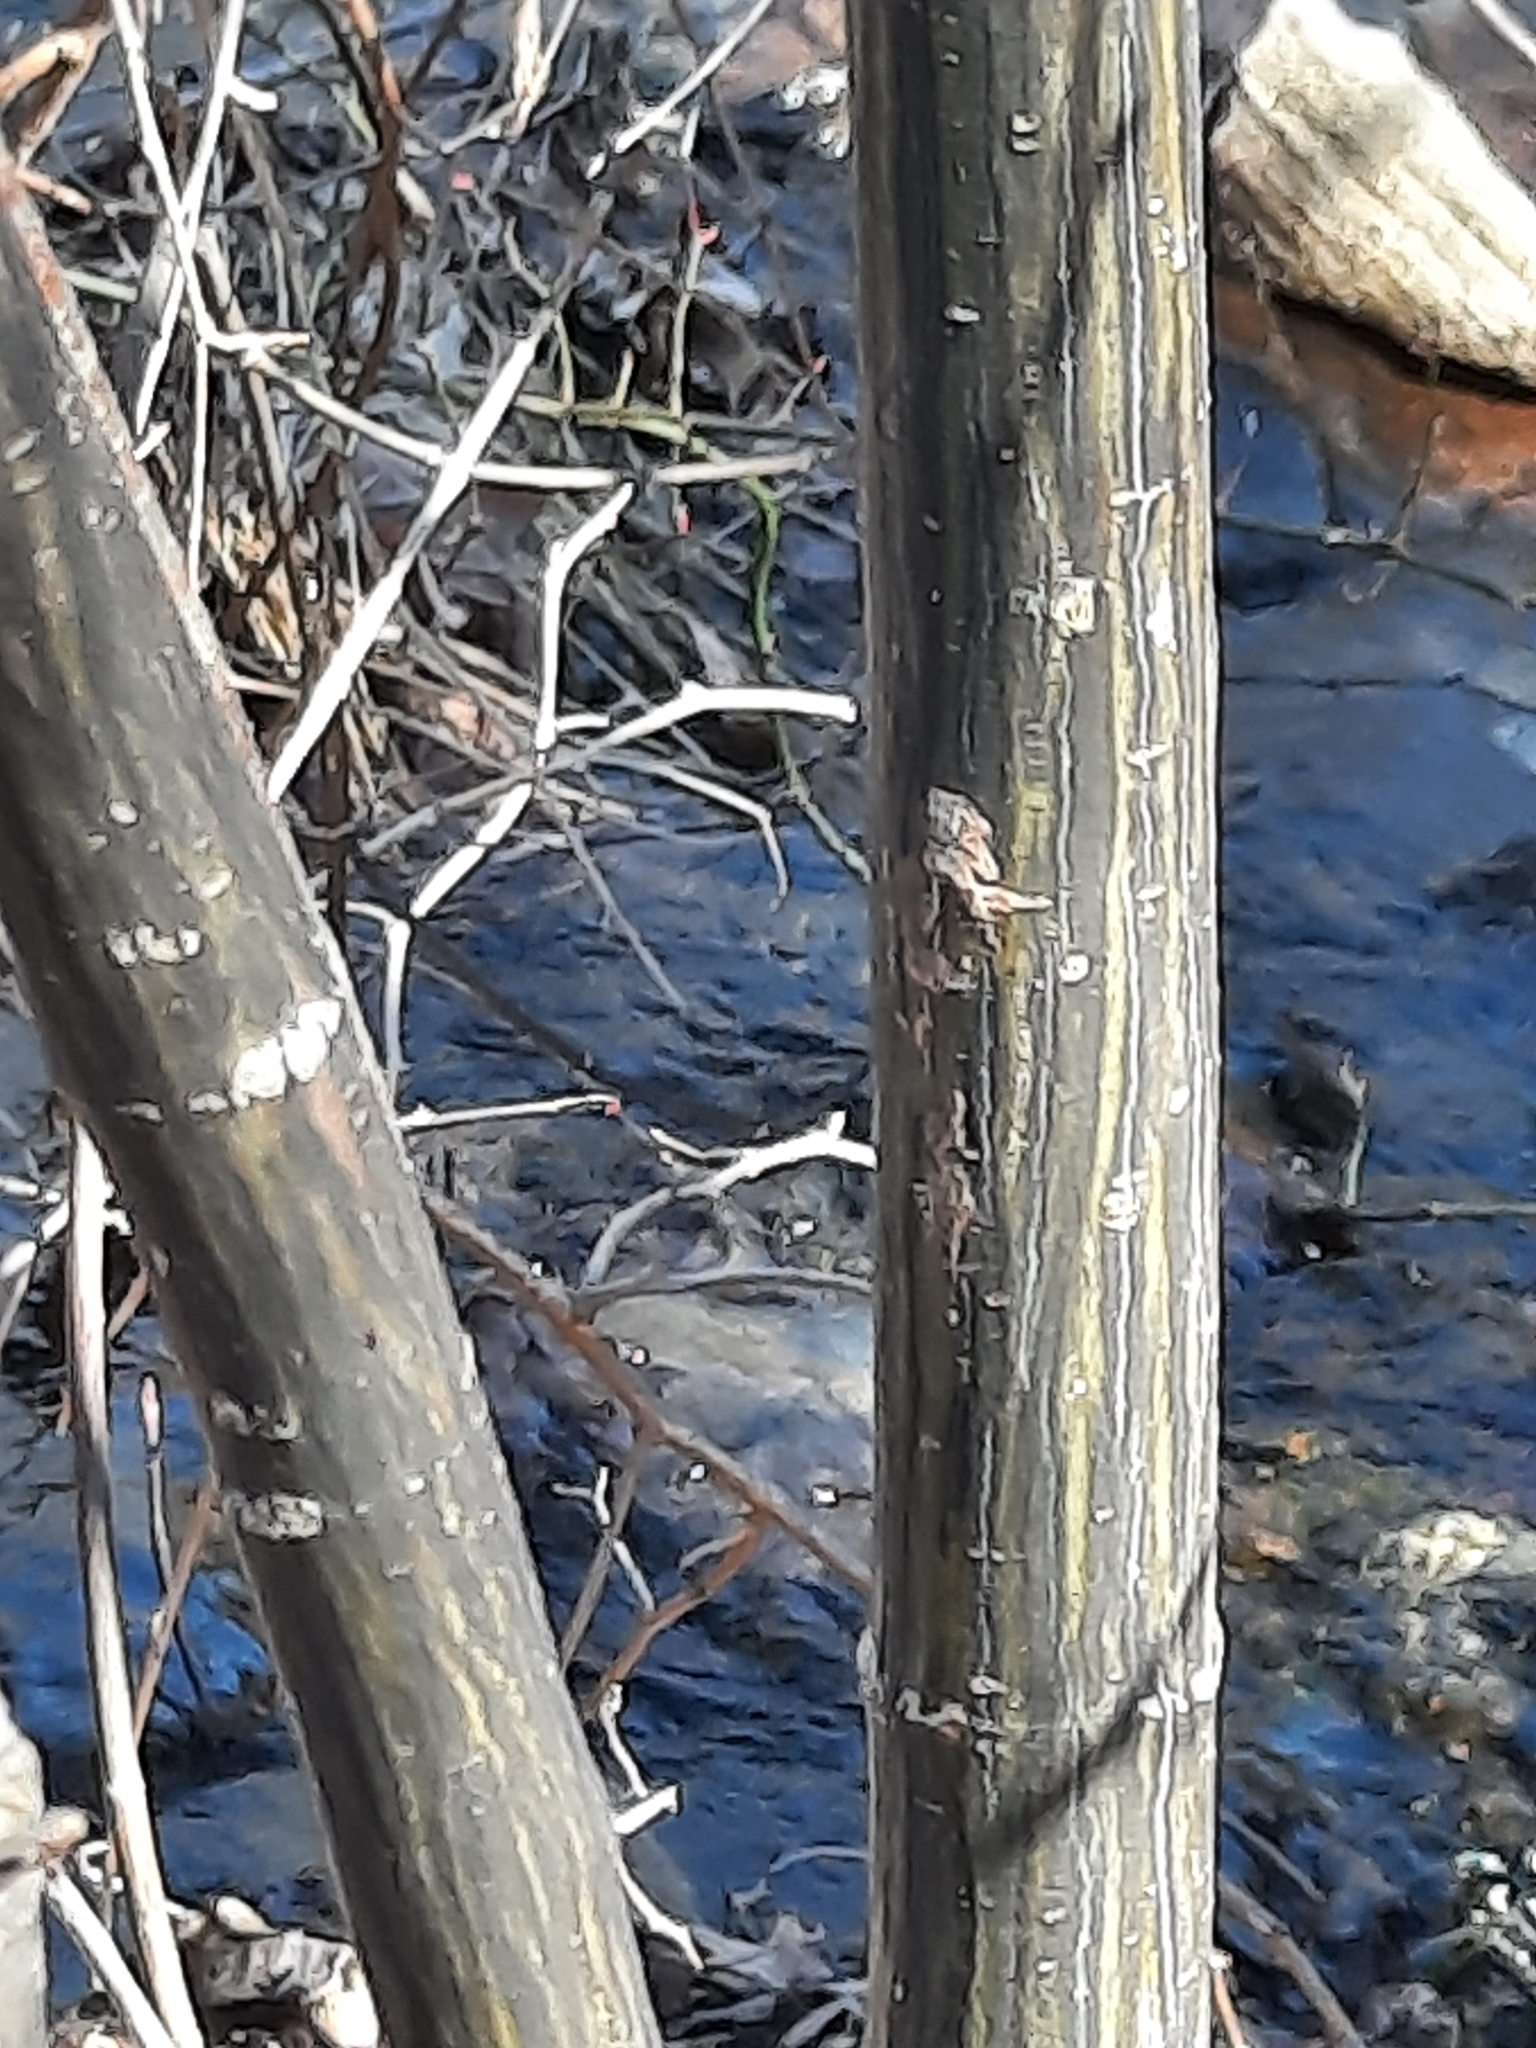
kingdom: Plantae
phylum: Tracheophyta
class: Magnoliopsida
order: Sapindales
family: Sapindaceae
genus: Acer
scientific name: Acer pensylvanicum
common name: Moosewood
